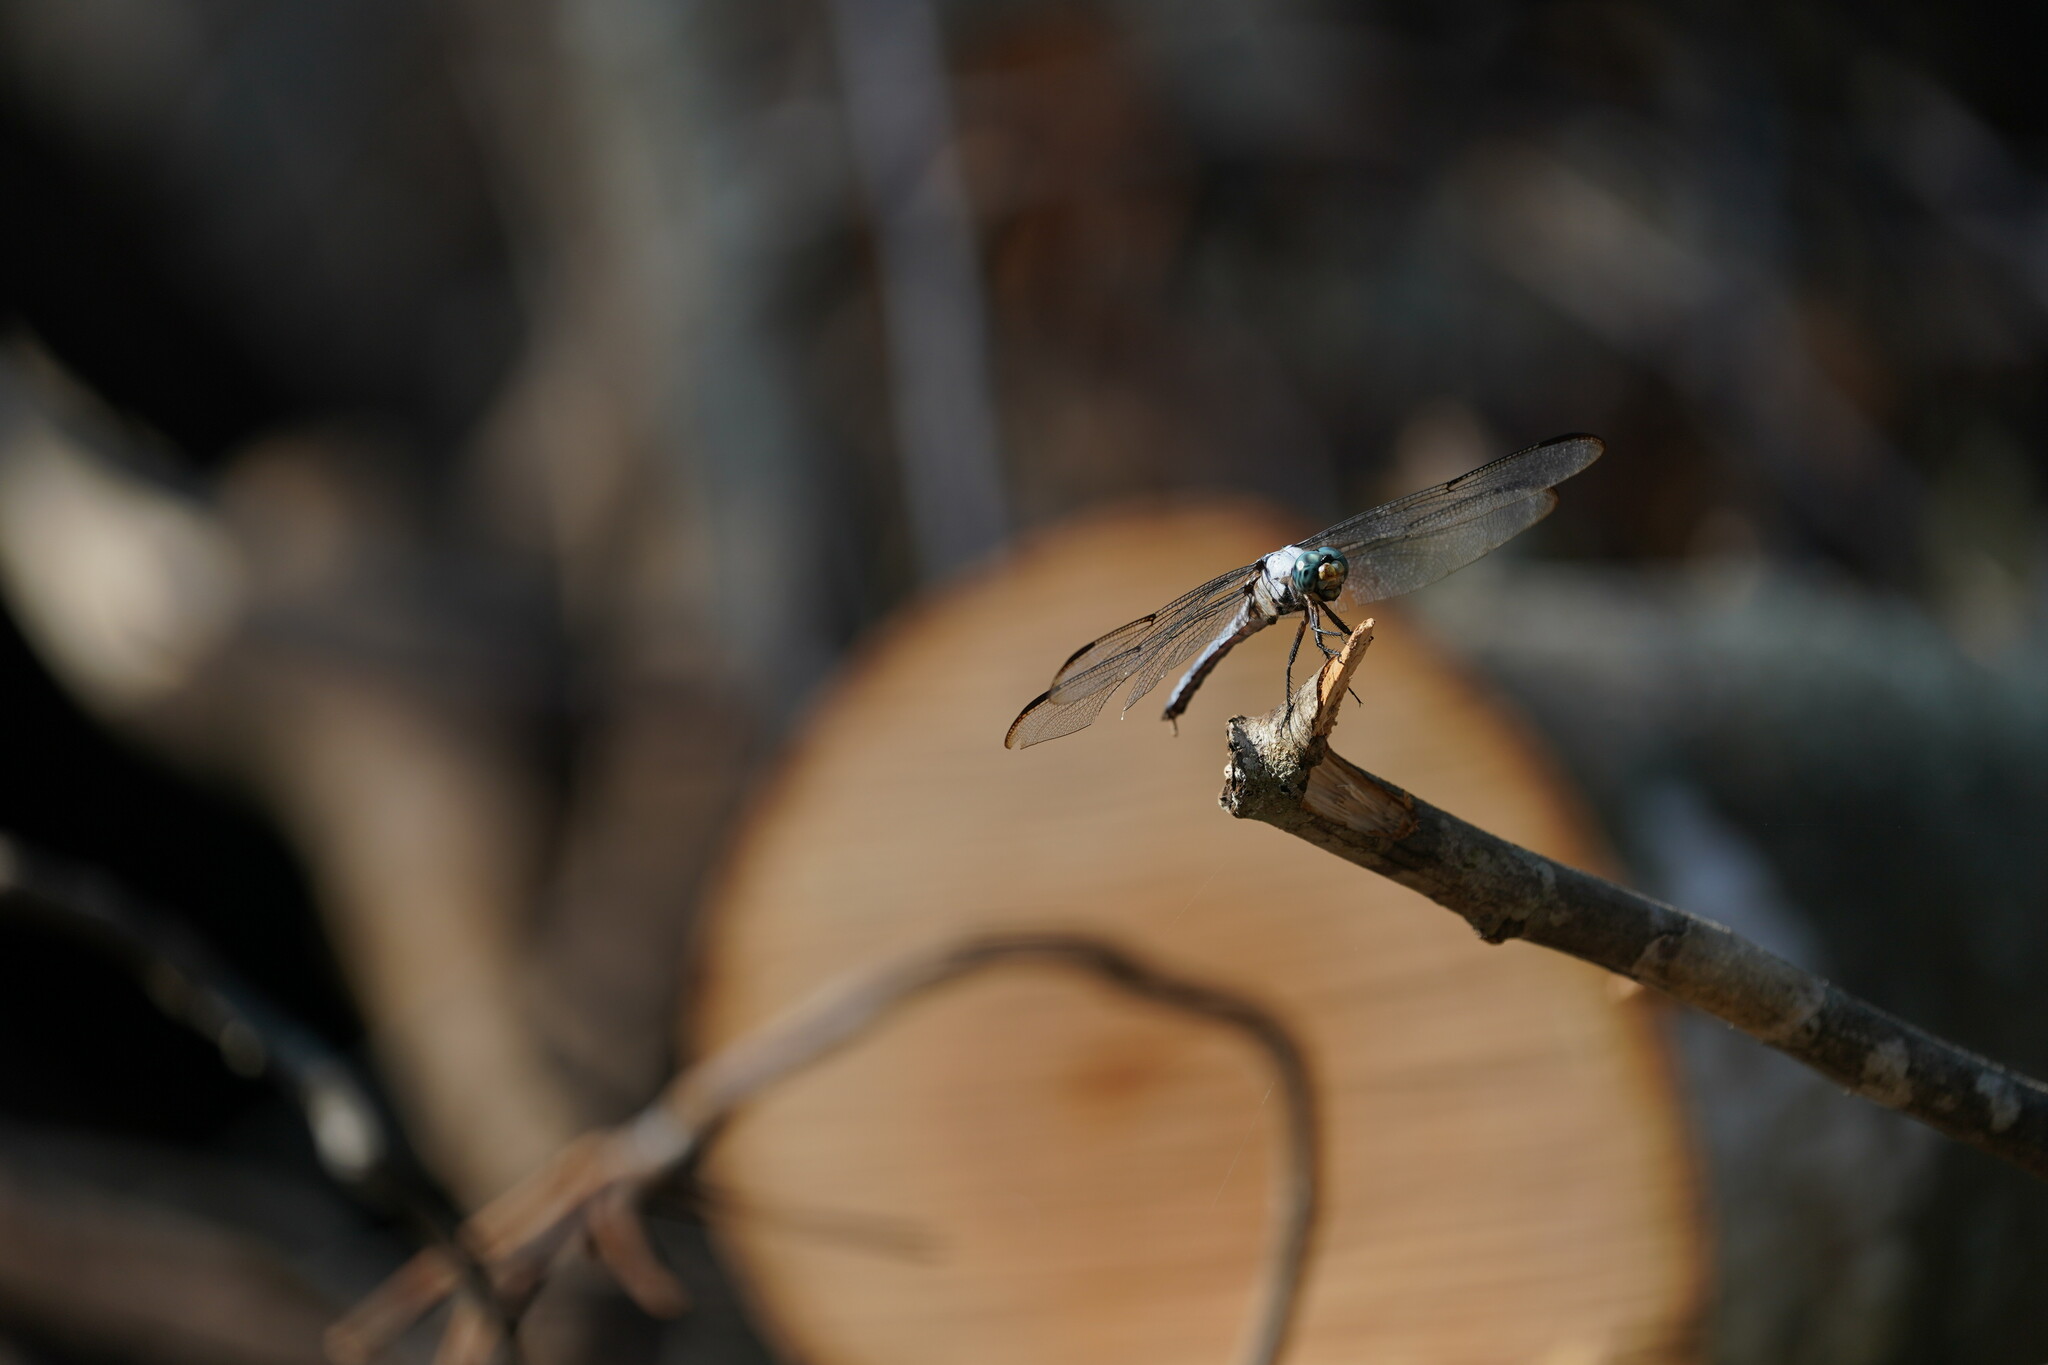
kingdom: Animalia
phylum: Arthropoda
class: Insecta
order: Odonata
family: Libellulidae
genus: Libellula
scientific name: Libellula vibrans
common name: Great blue skimmer
